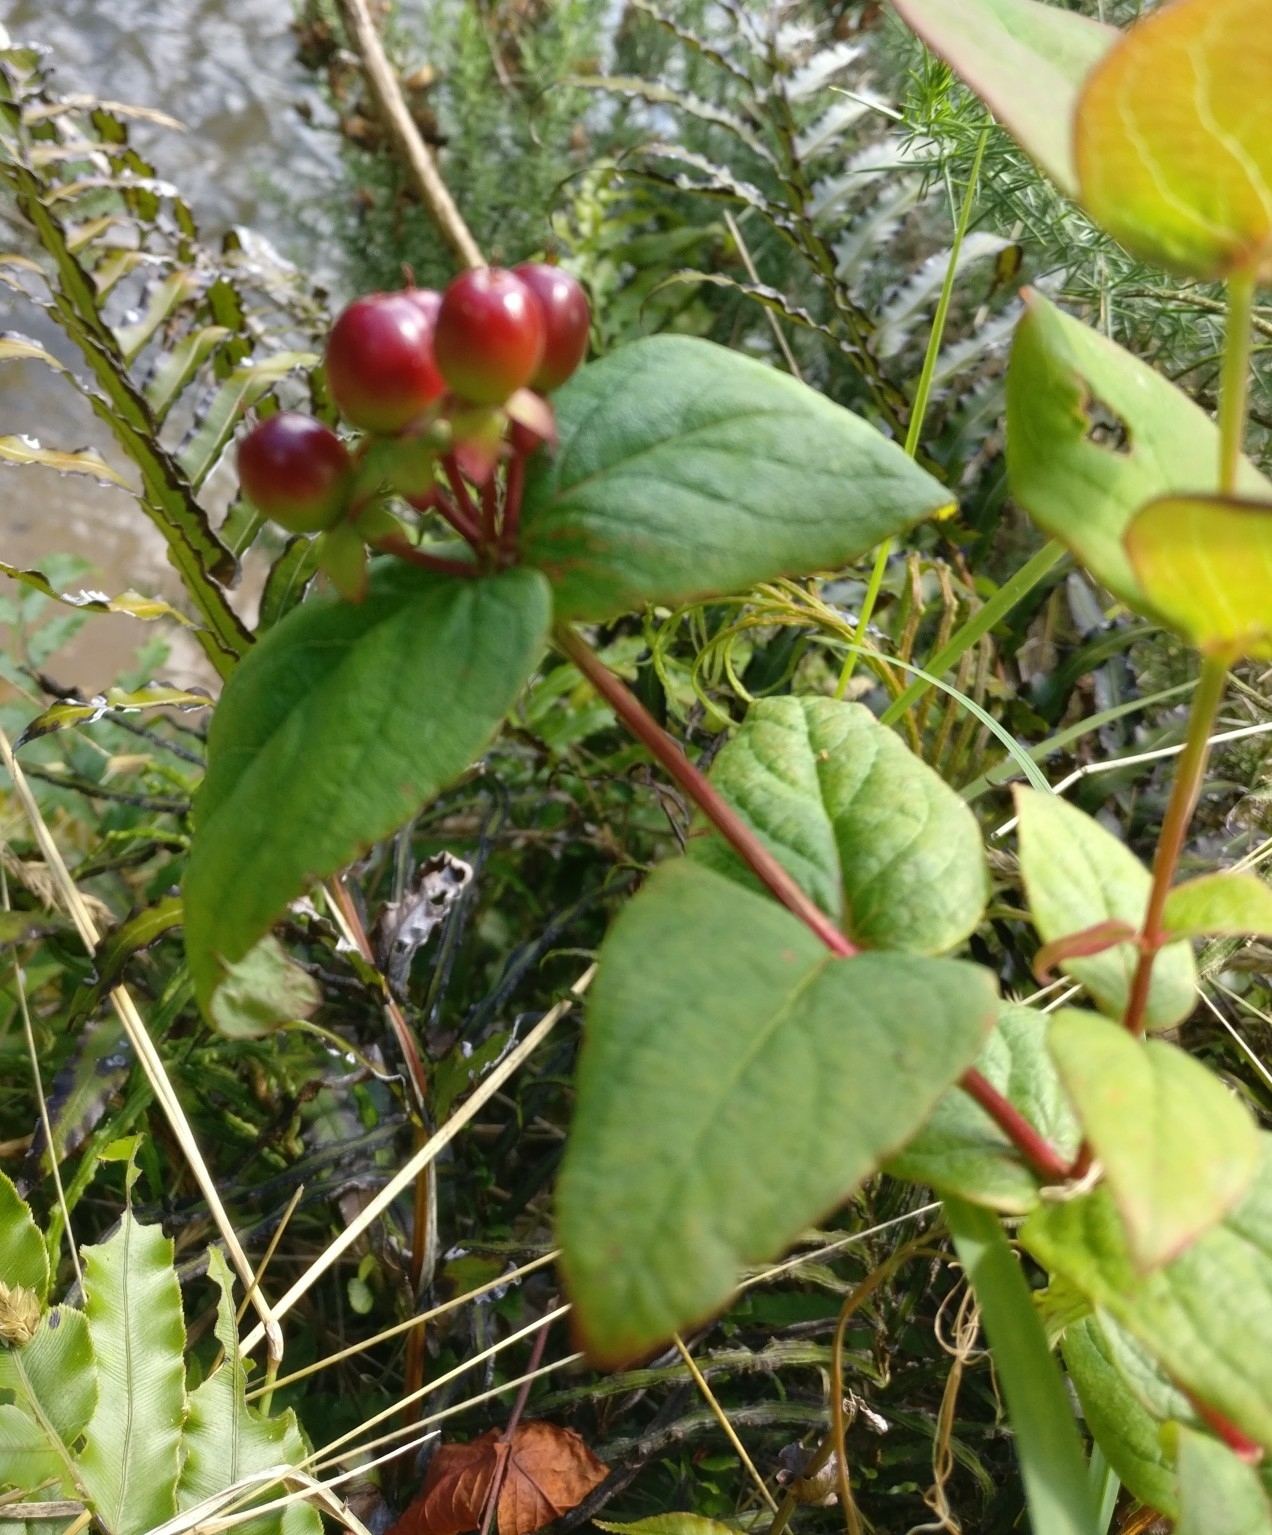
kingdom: Plantae
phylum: Tracheophyta
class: Magnoliopsida
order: Malpighiales
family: Hypericaceae
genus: Hypericum
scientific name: Hypericum androsaemum
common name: Sweet-amber
